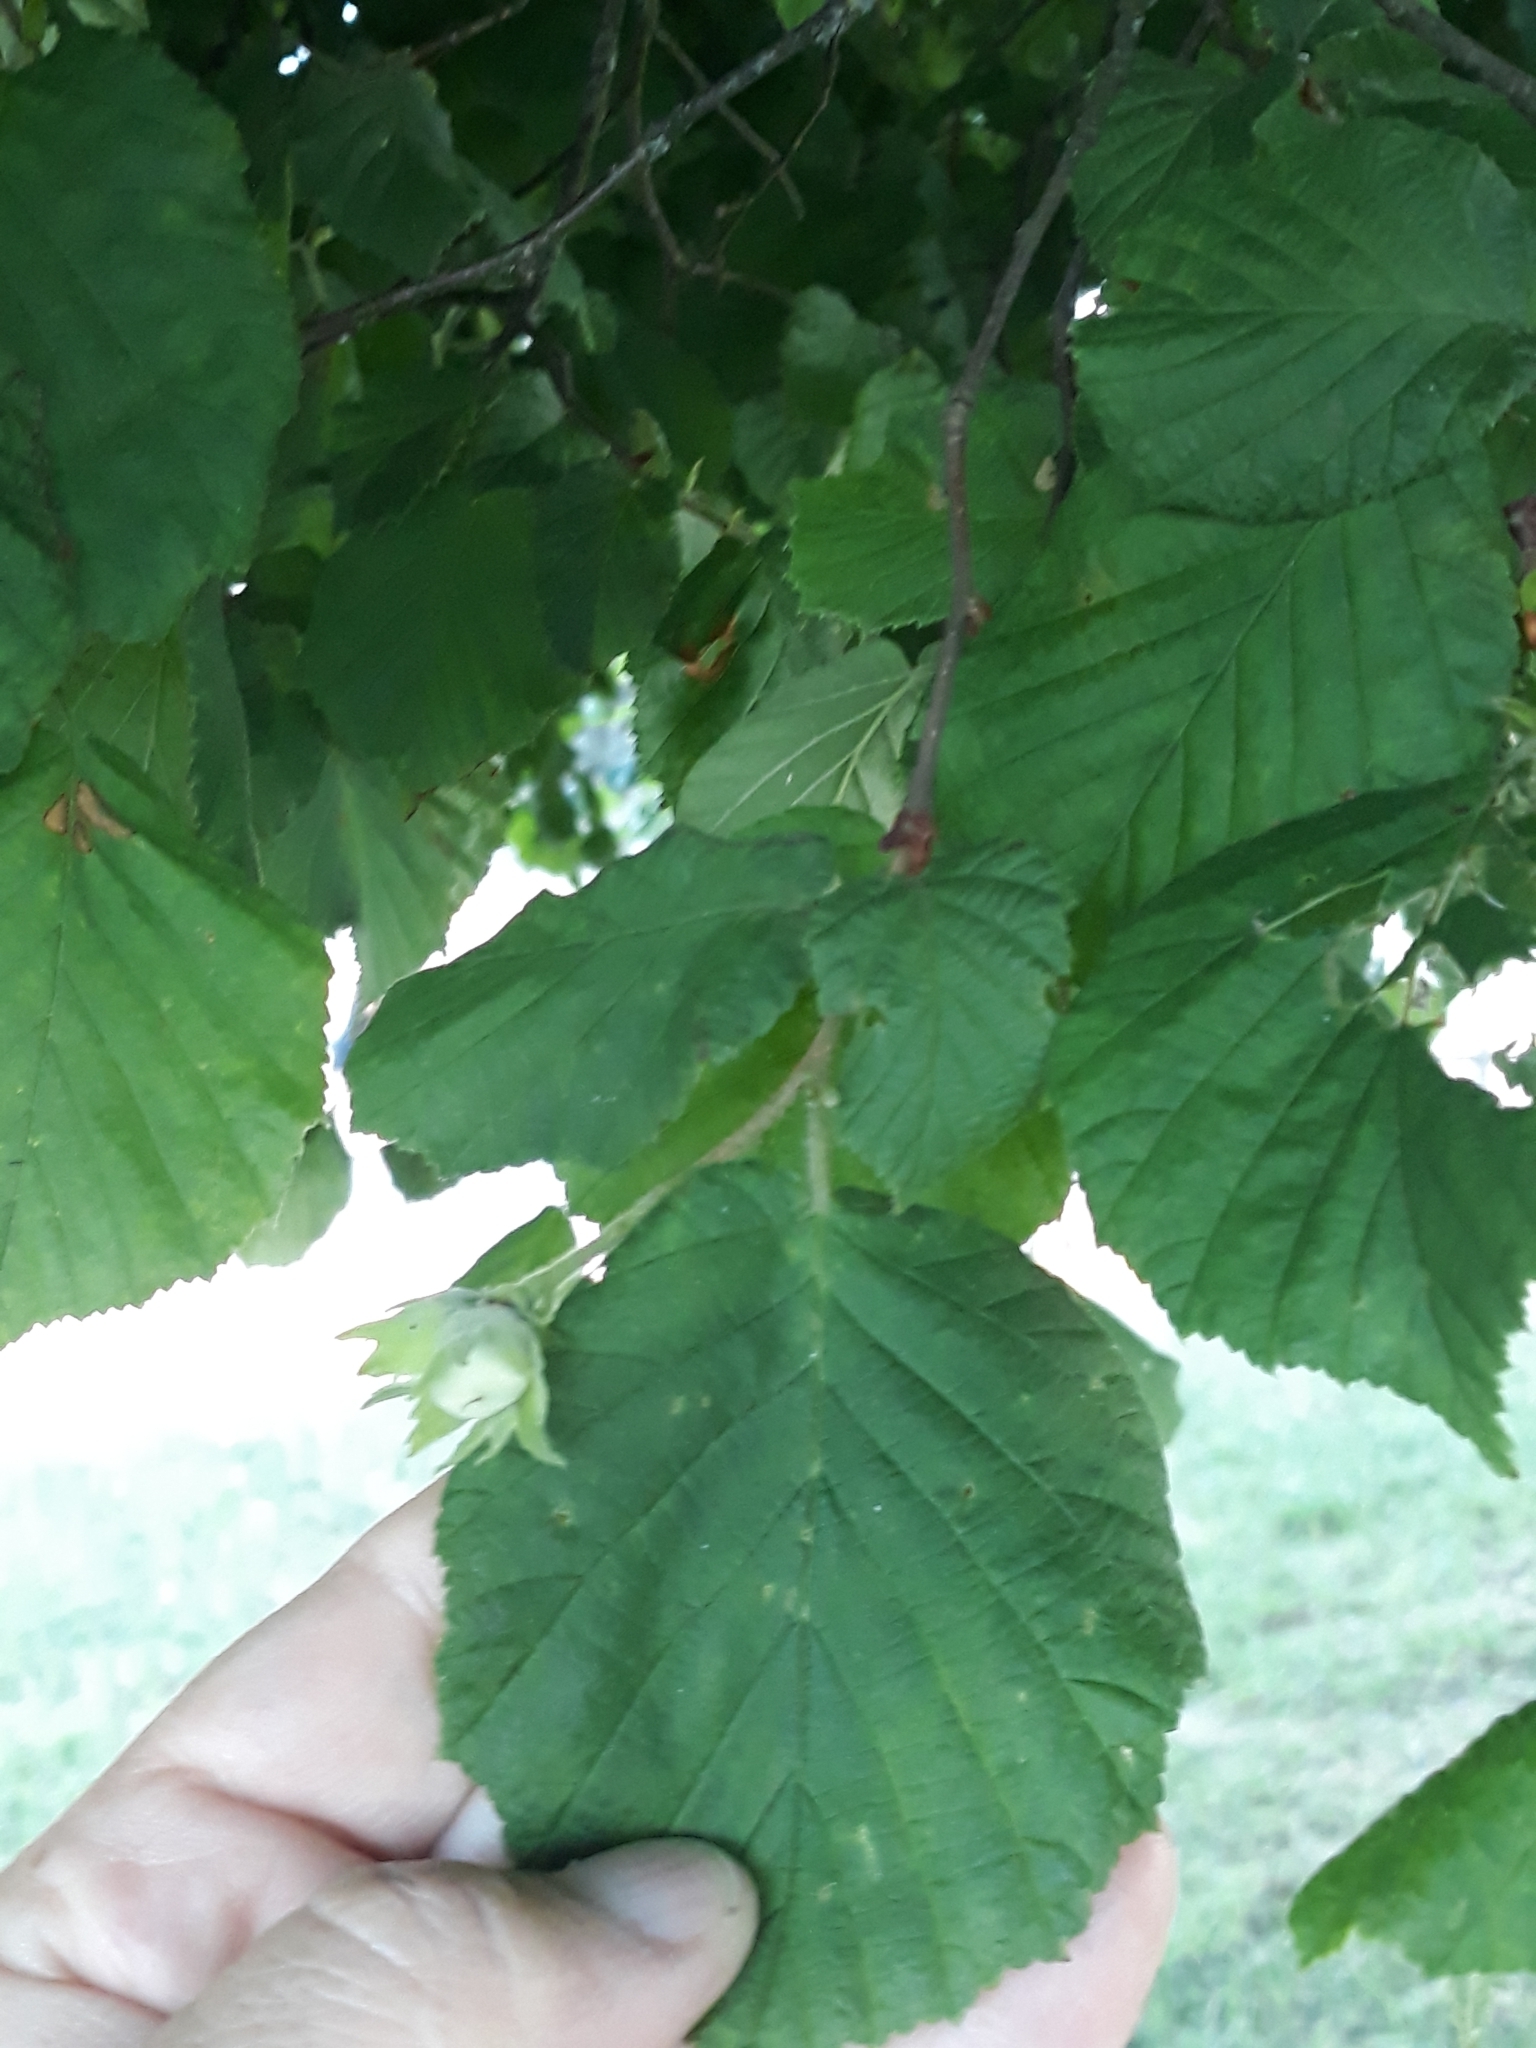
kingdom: Plantae
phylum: Tracheophyta
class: Magnoliopsida
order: Fagales
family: Betulaceae
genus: Corylus
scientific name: Corylus avellana
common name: European hazel
